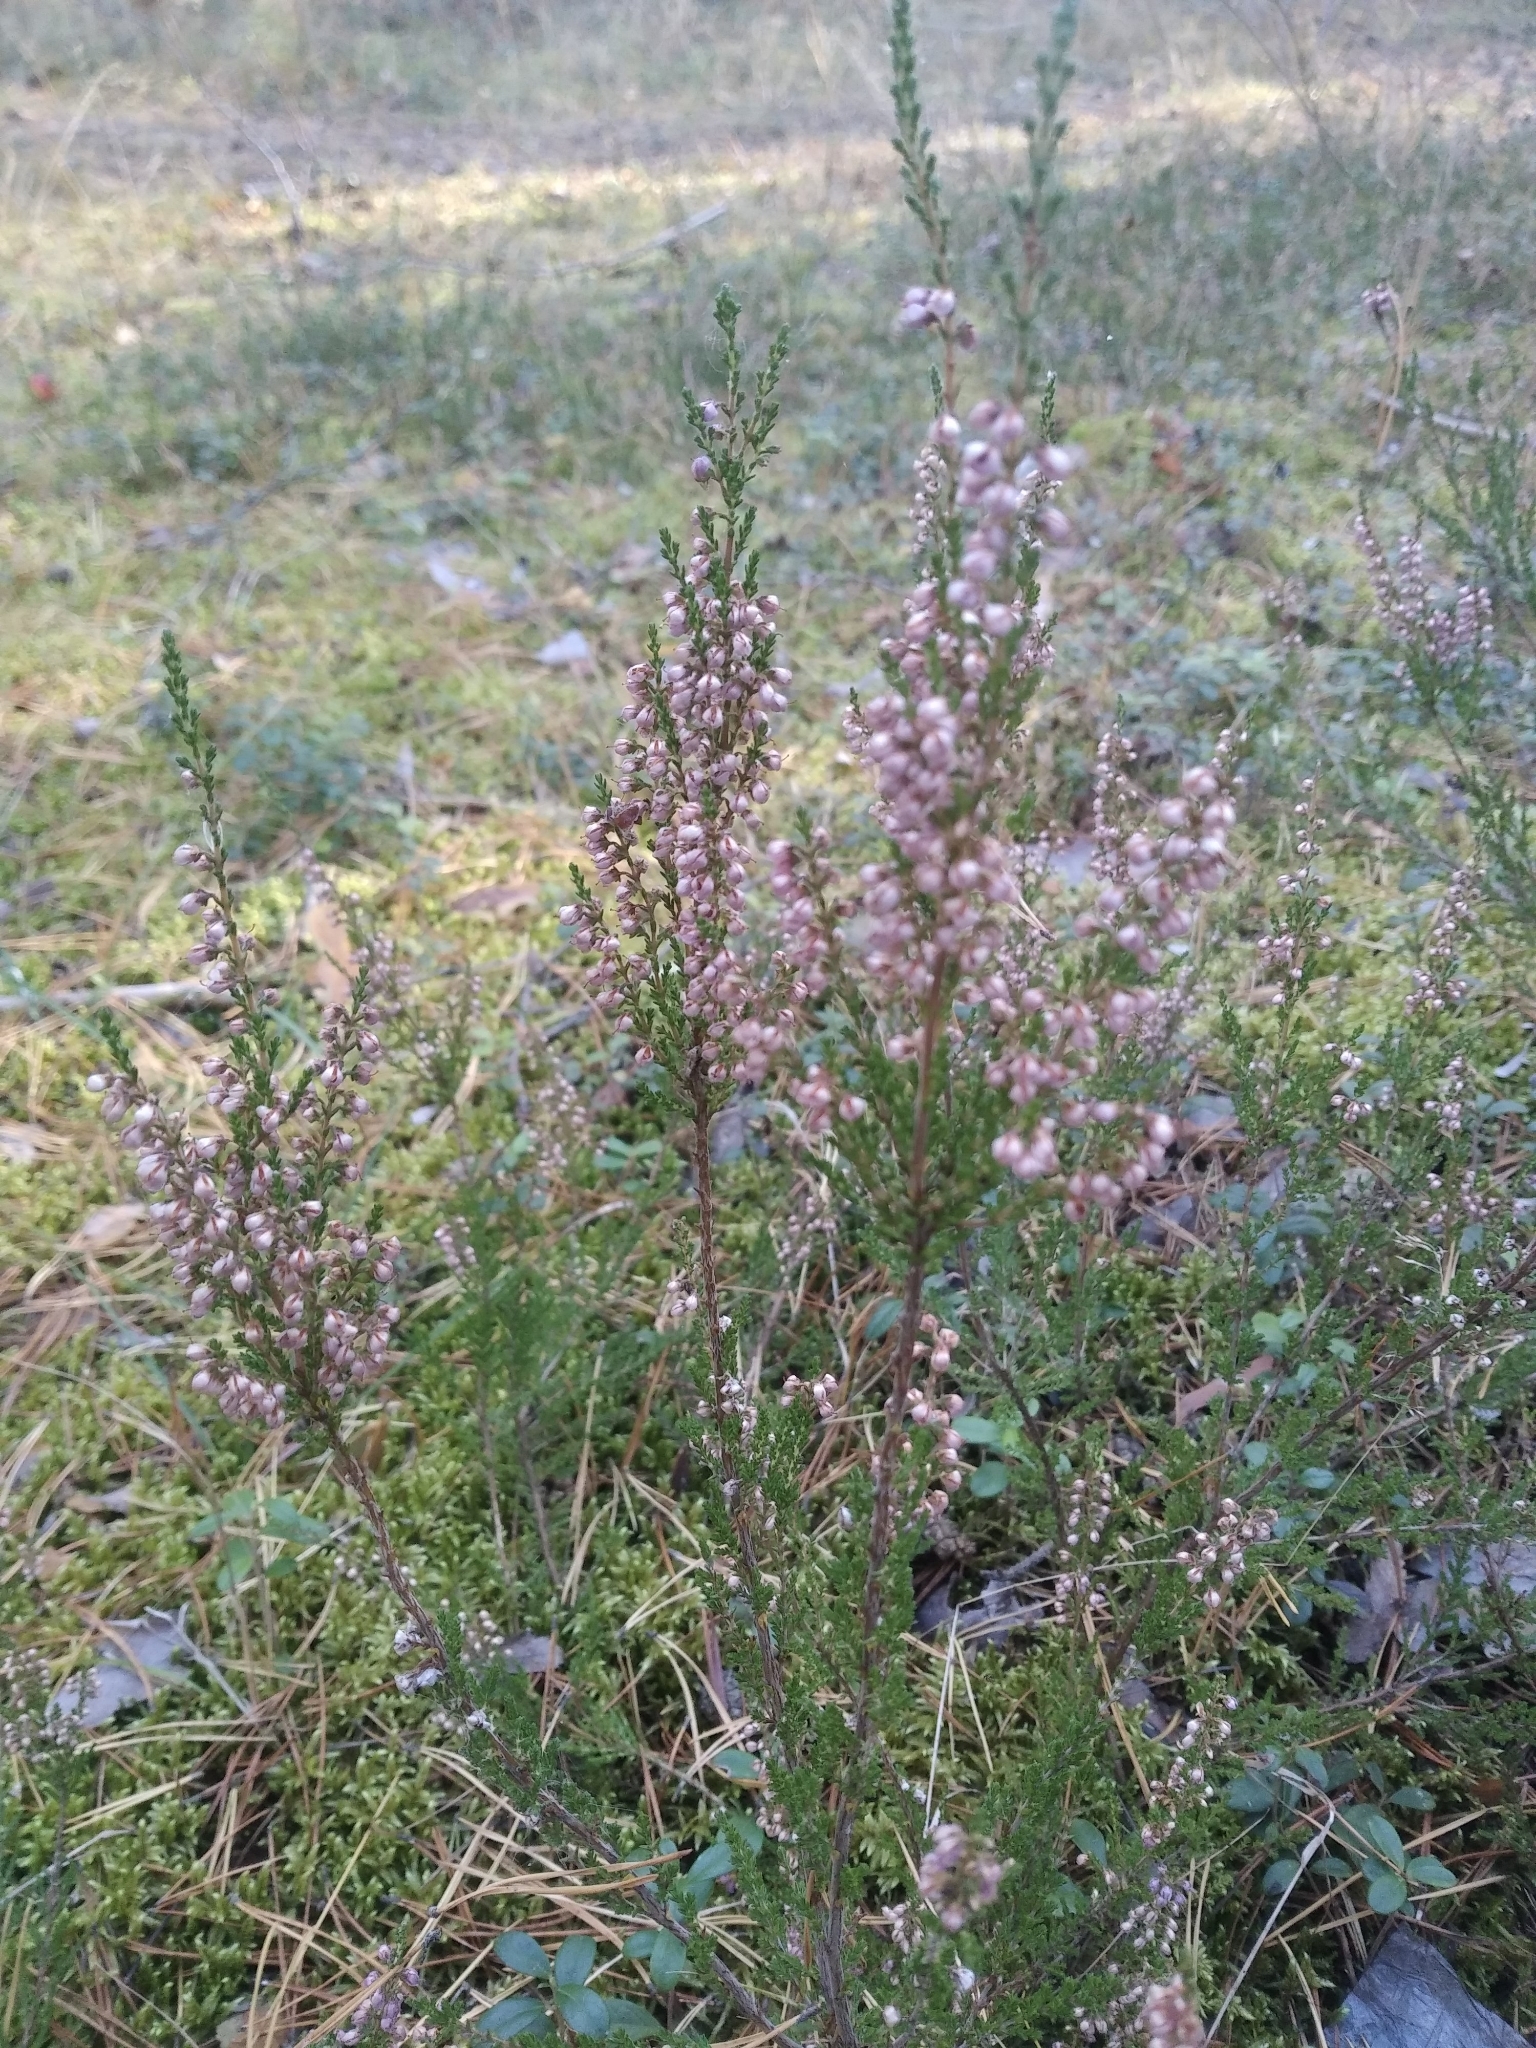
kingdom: Plantae
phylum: Tracheophyta
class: Magnoliopsida
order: Ericales
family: Ericaceae
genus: Calluna
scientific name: Calluna vulgaris
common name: Heather
